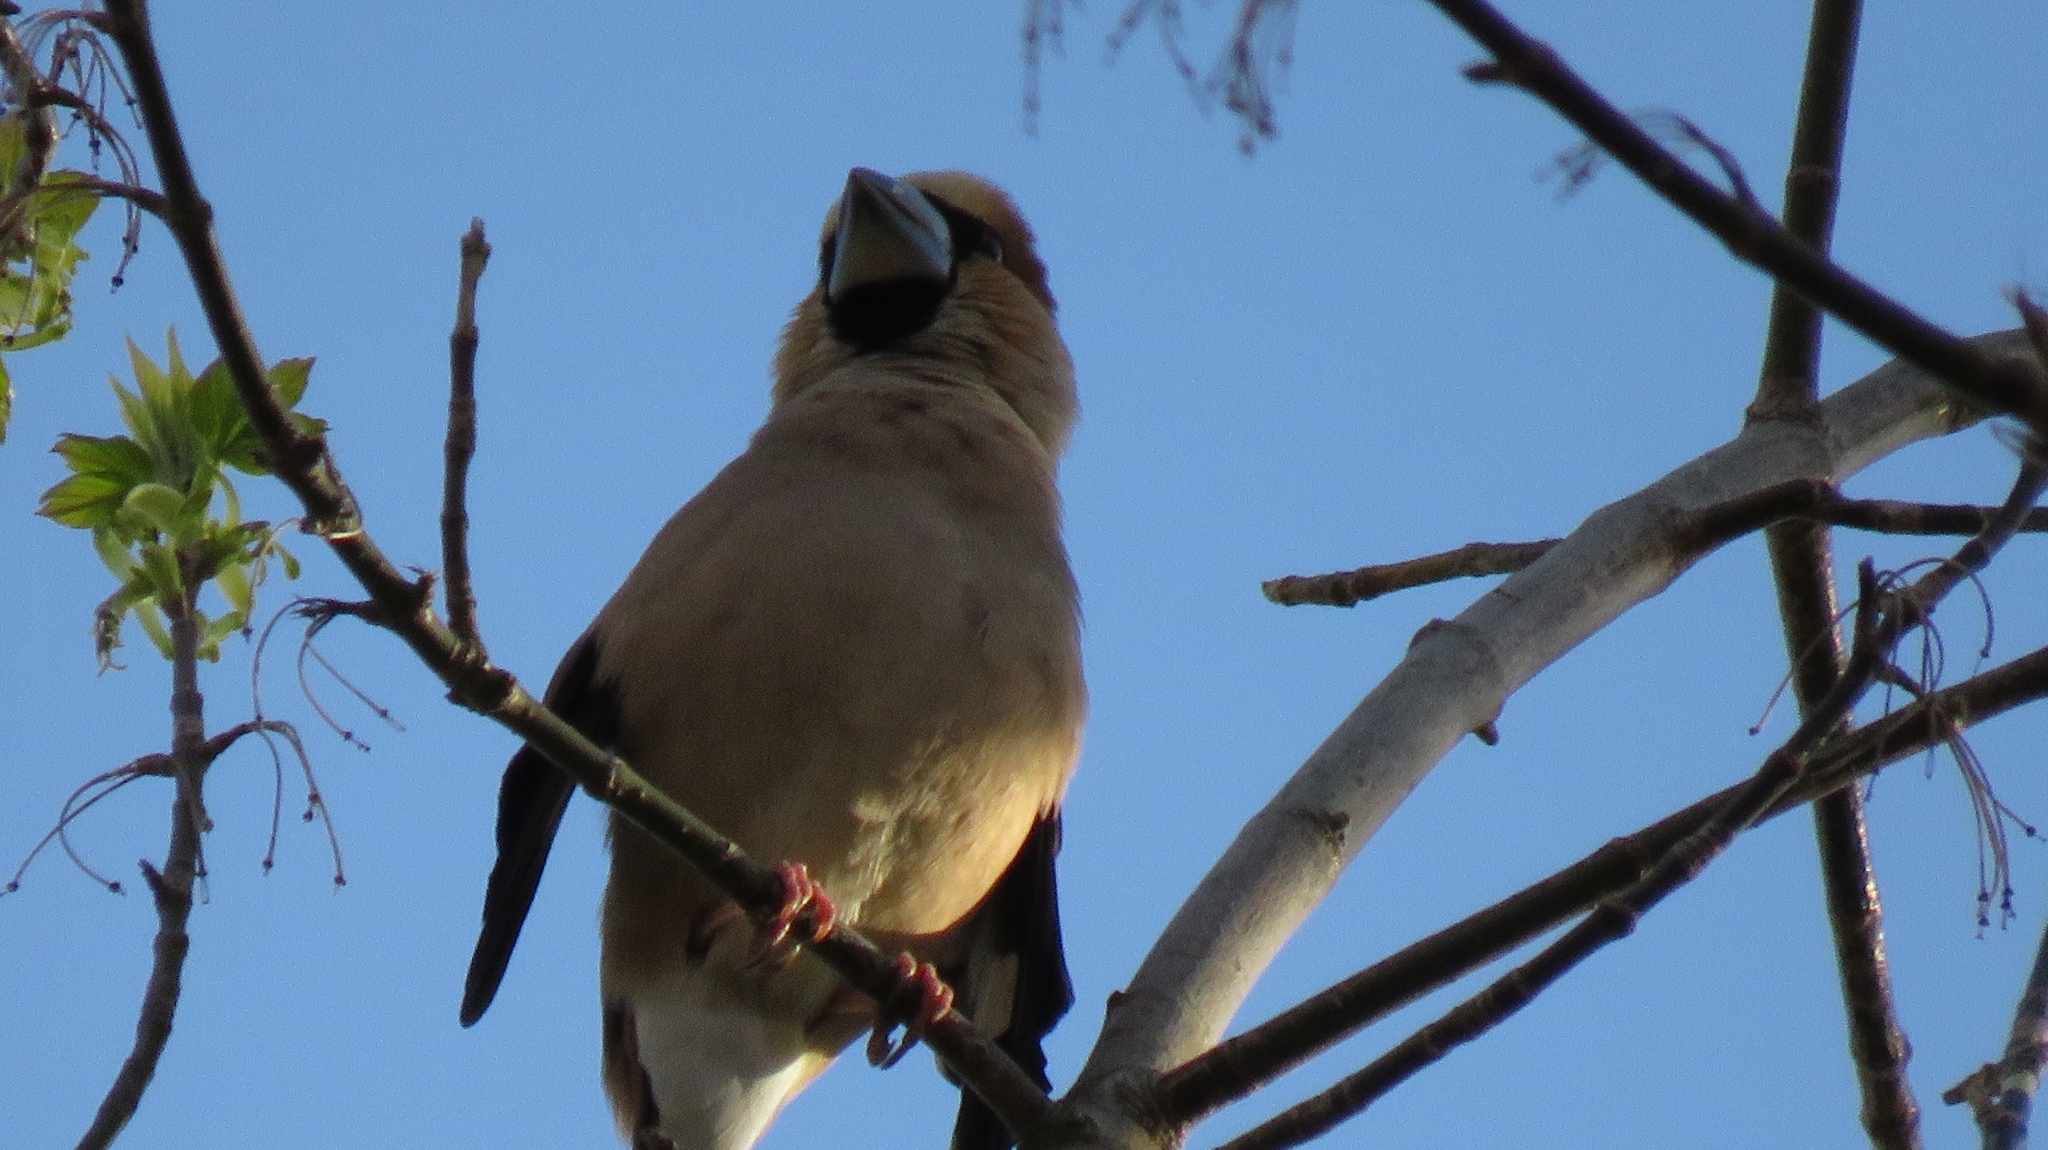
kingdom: Animalia
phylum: Chordata
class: Aves
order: Passeriformes
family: Fringillidae
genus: Coccothraustes
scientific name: Coccothraustes coccothraustes
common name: Hawfinch
